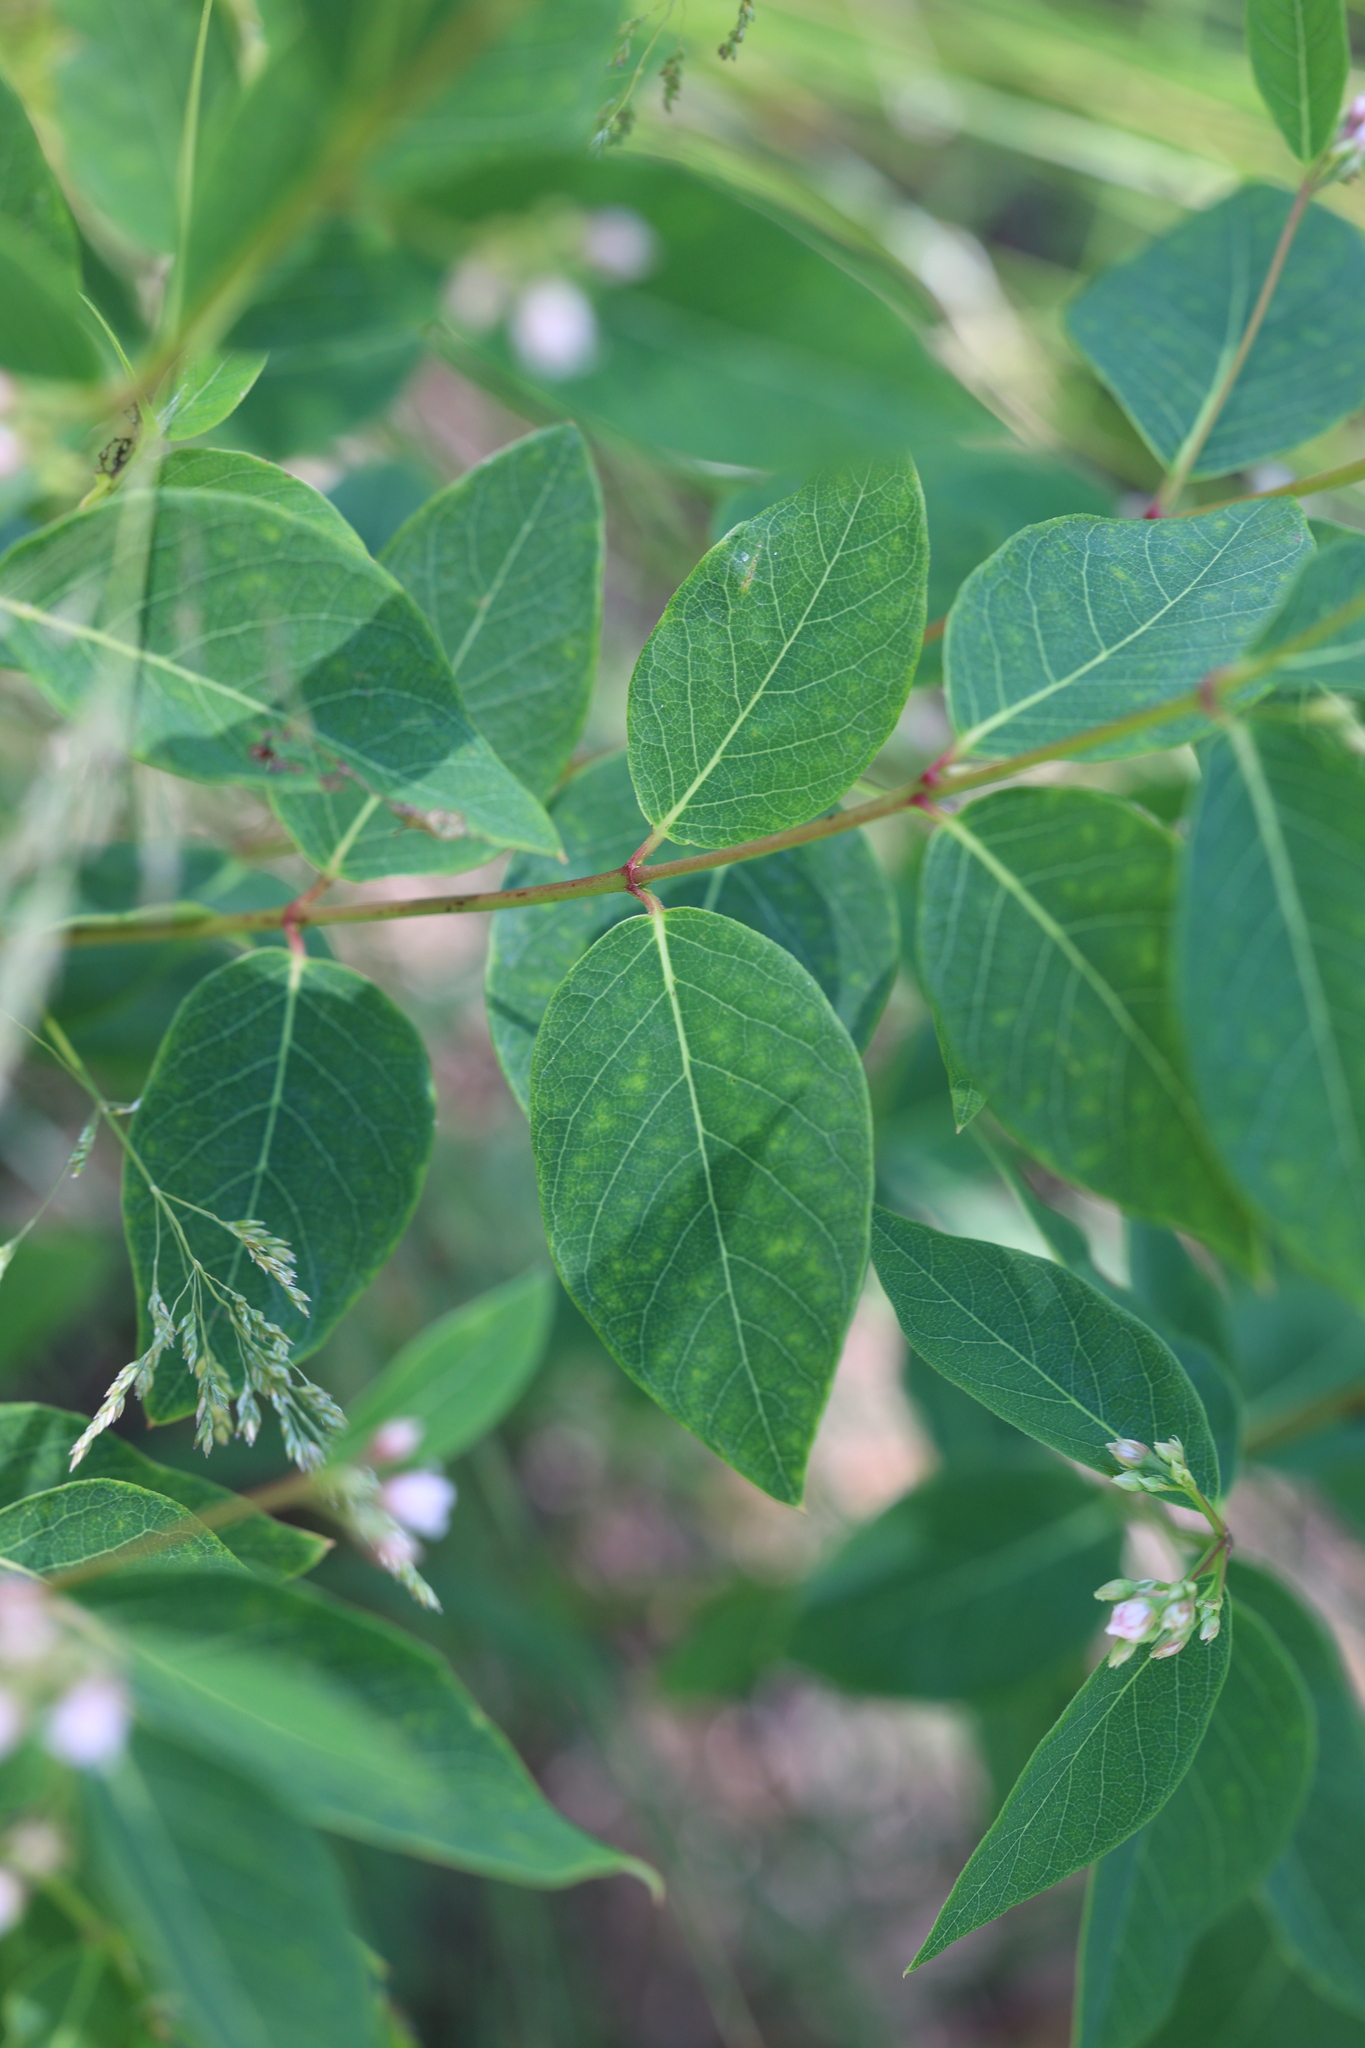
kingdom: Plantae
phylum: Tracheophyta
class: Magnoliopsida
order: Gentianales
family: Apocynaceae
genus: Apocynum
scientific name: Apocynum androsaemifolium
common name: Spreading dogbane
